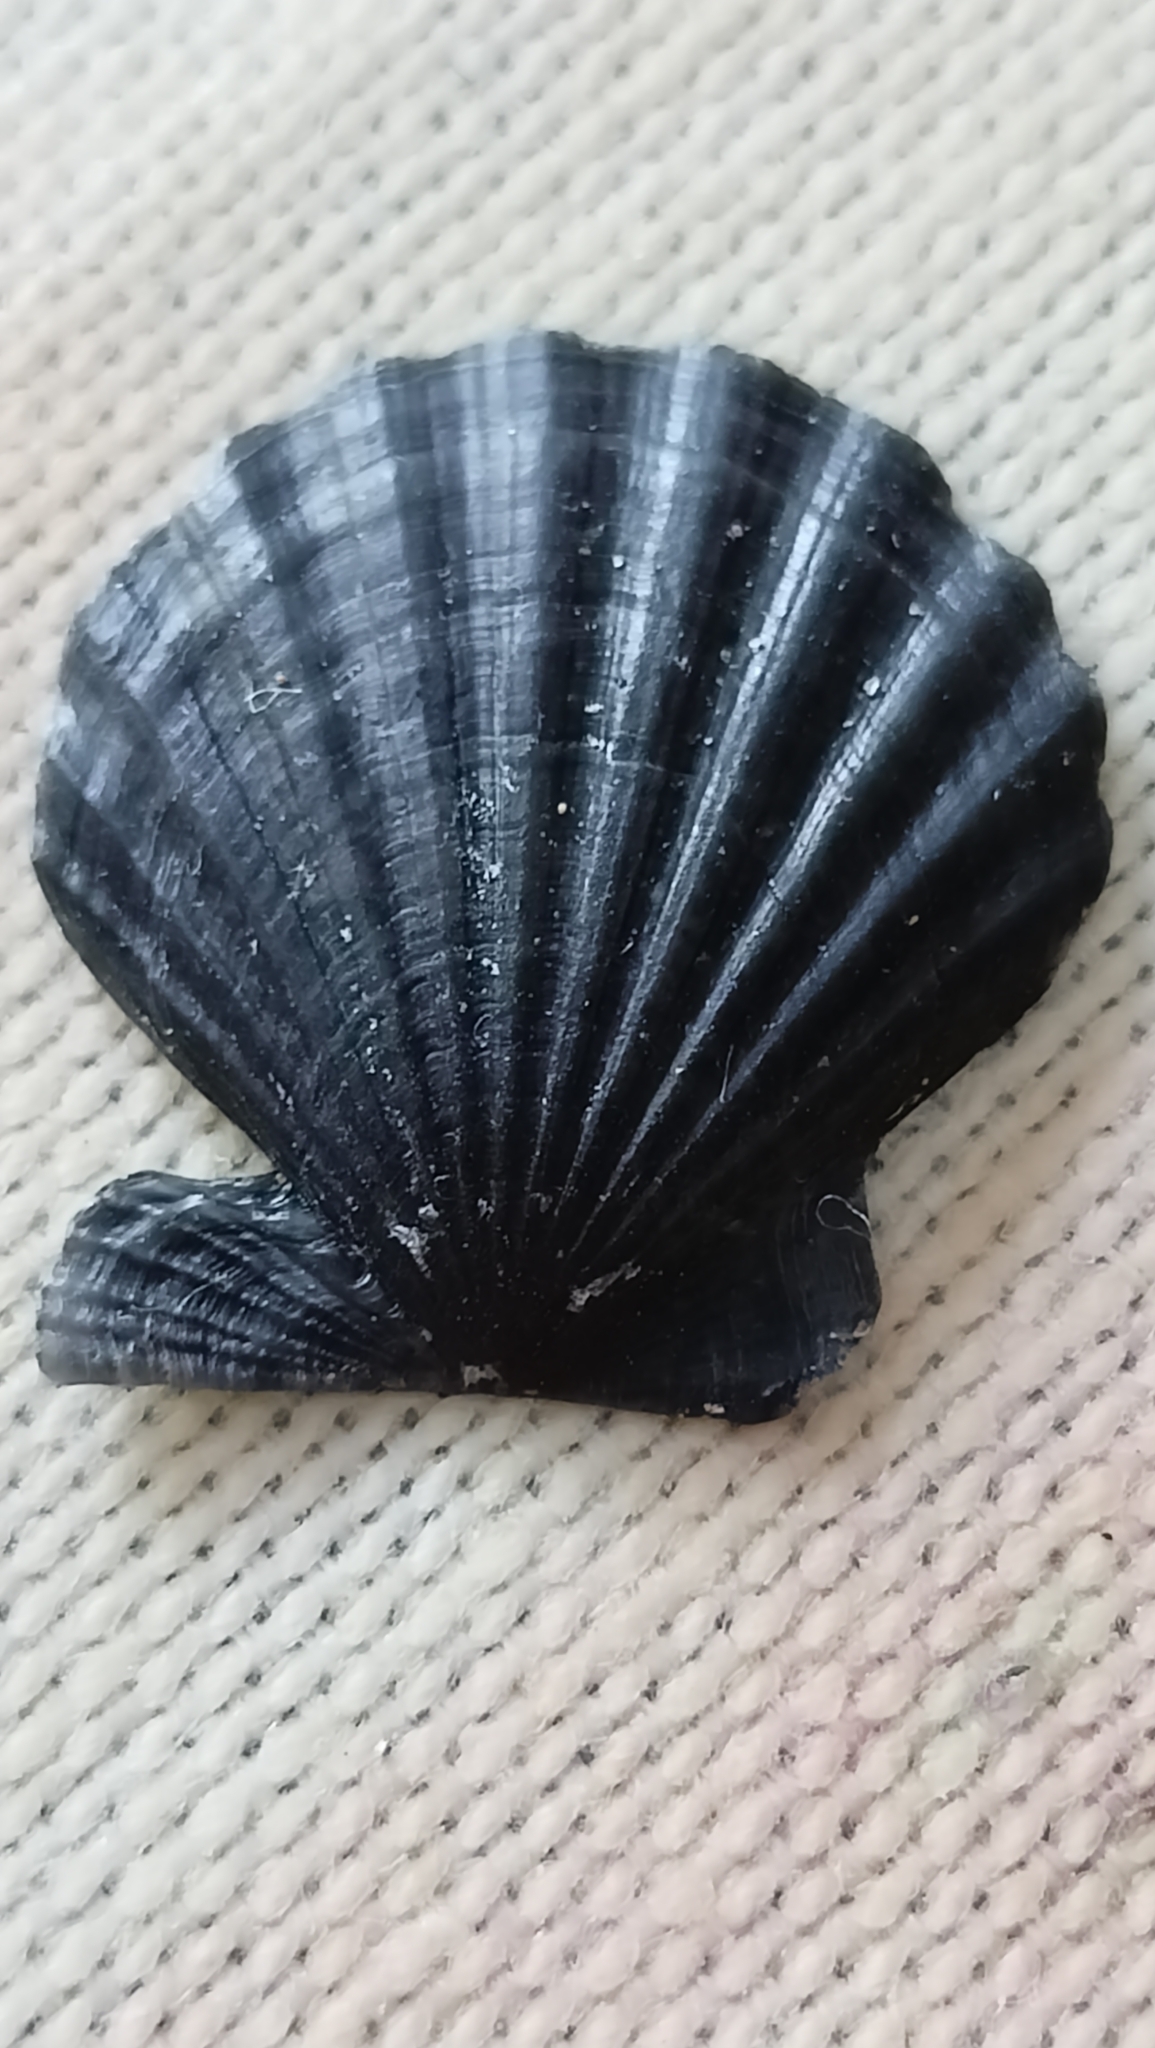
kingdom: Animalia
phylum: Mollusca
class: Bivalvia
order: Pectinida
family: Pectinidae
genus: Flexopecten
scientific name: Flexopecten glaber
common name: Smooth scallop
